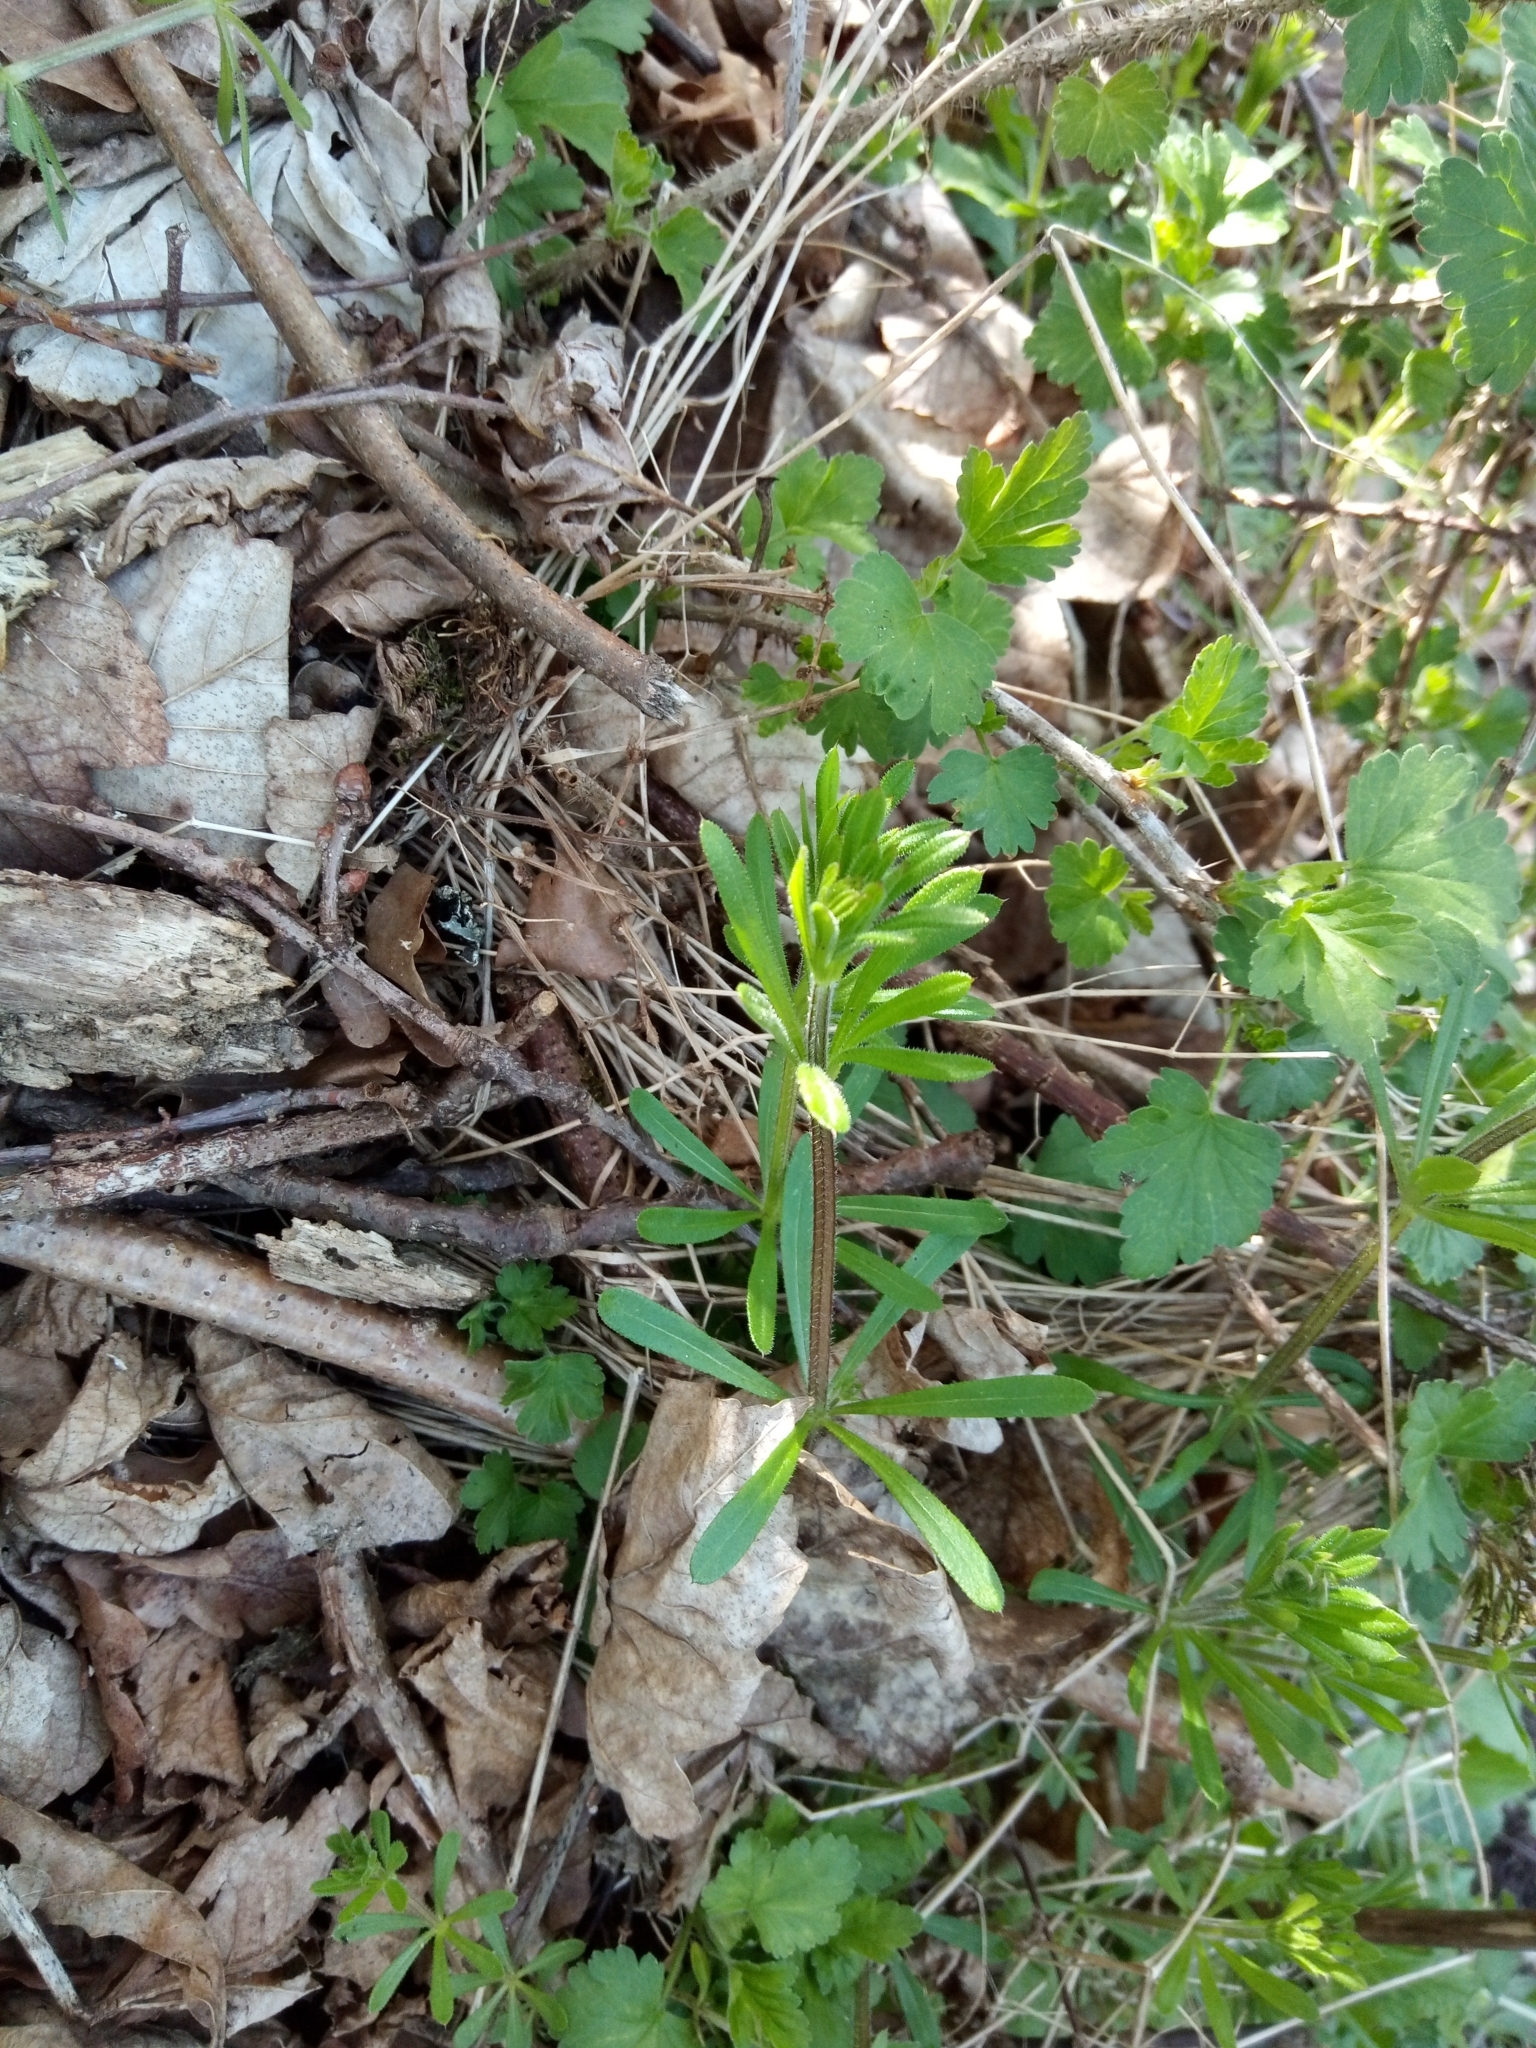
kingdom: Plantae
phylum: Tracheophyta
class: Magnoliopsida
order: Gentianales
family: Rubiaceae
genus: Galium
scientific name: Galium aparine
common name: Cleavers
